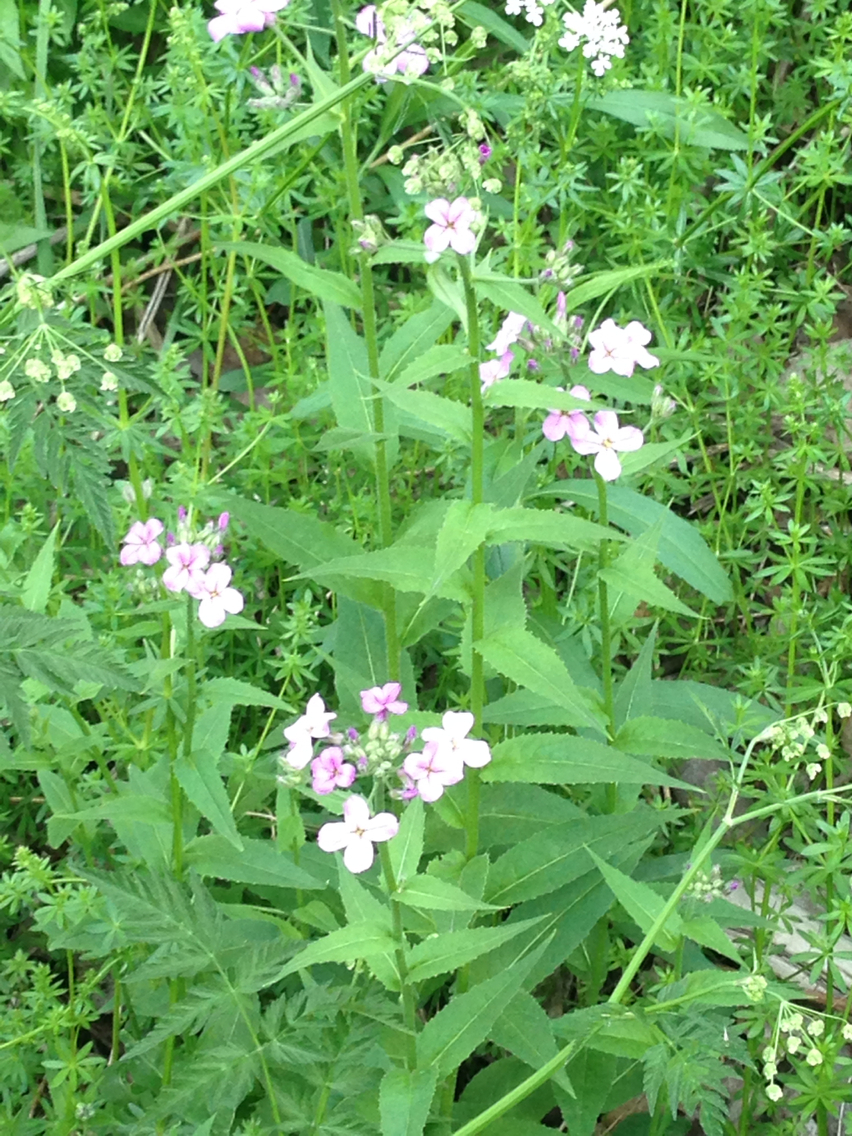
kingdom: Plantae
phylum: Tracheophyta
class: Magnoliopsida
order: Brassicales
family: Brassicaceae
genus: Hesperis
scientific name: Hesperis matronalis
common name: Dame's-violet
